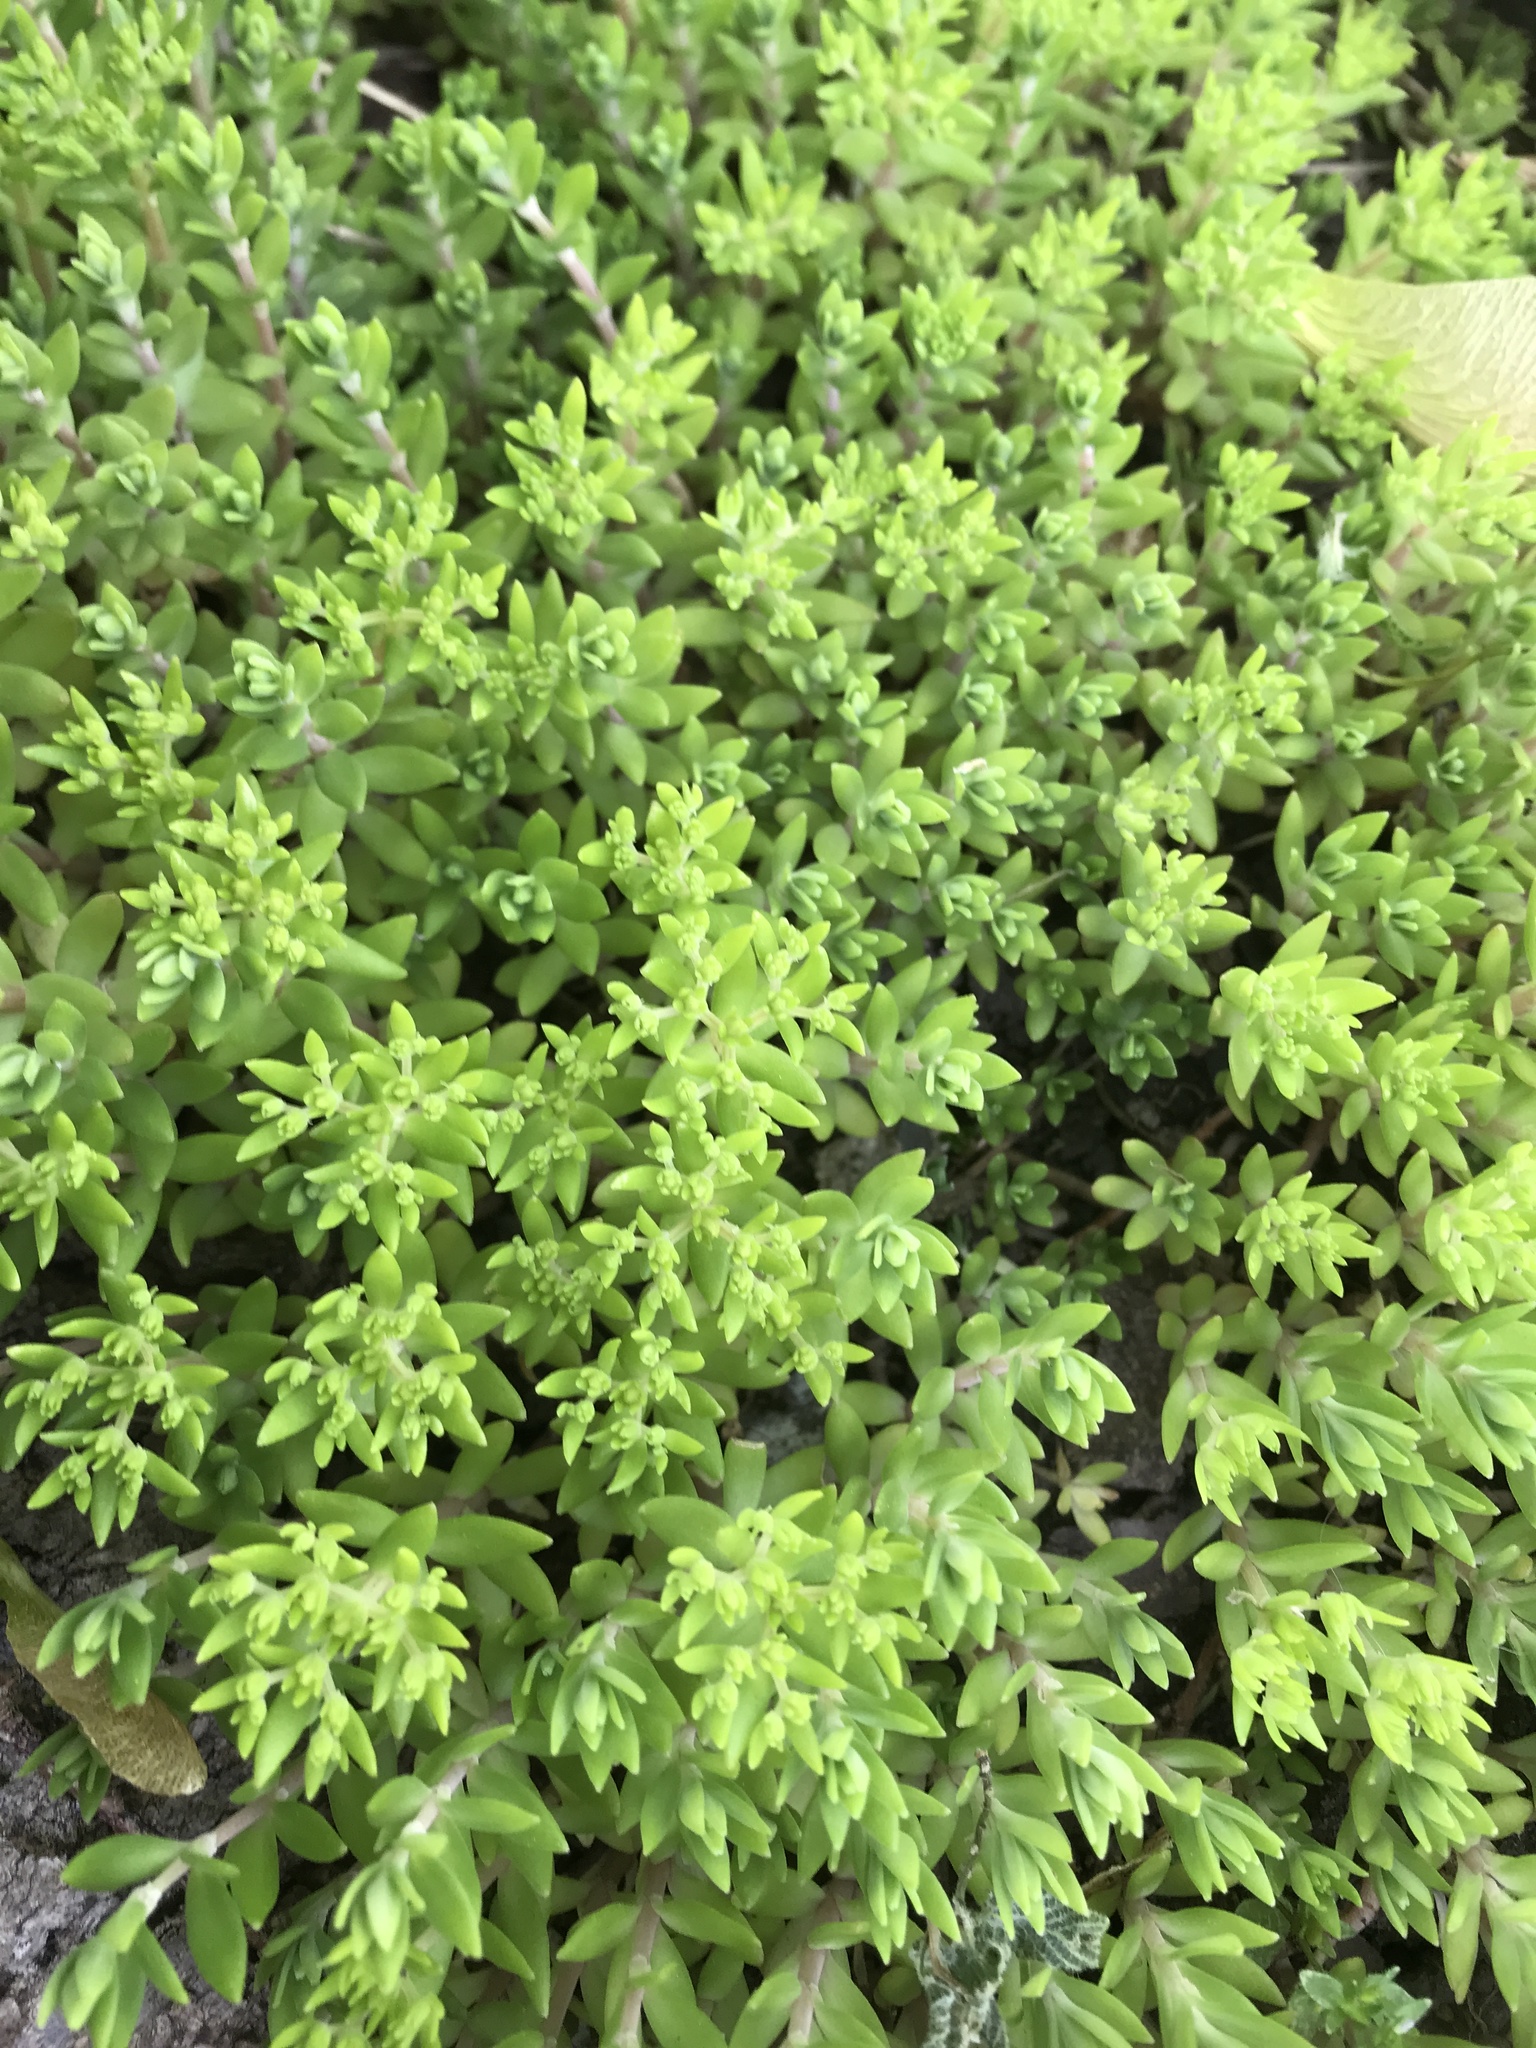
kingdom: Plantae
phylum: Tracheophyta
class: Magnoliopsida
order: Saxifragales
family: Crassulaceae
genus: Sedum
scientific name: Sedum sarmentosum
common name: Stringy stonecrop
